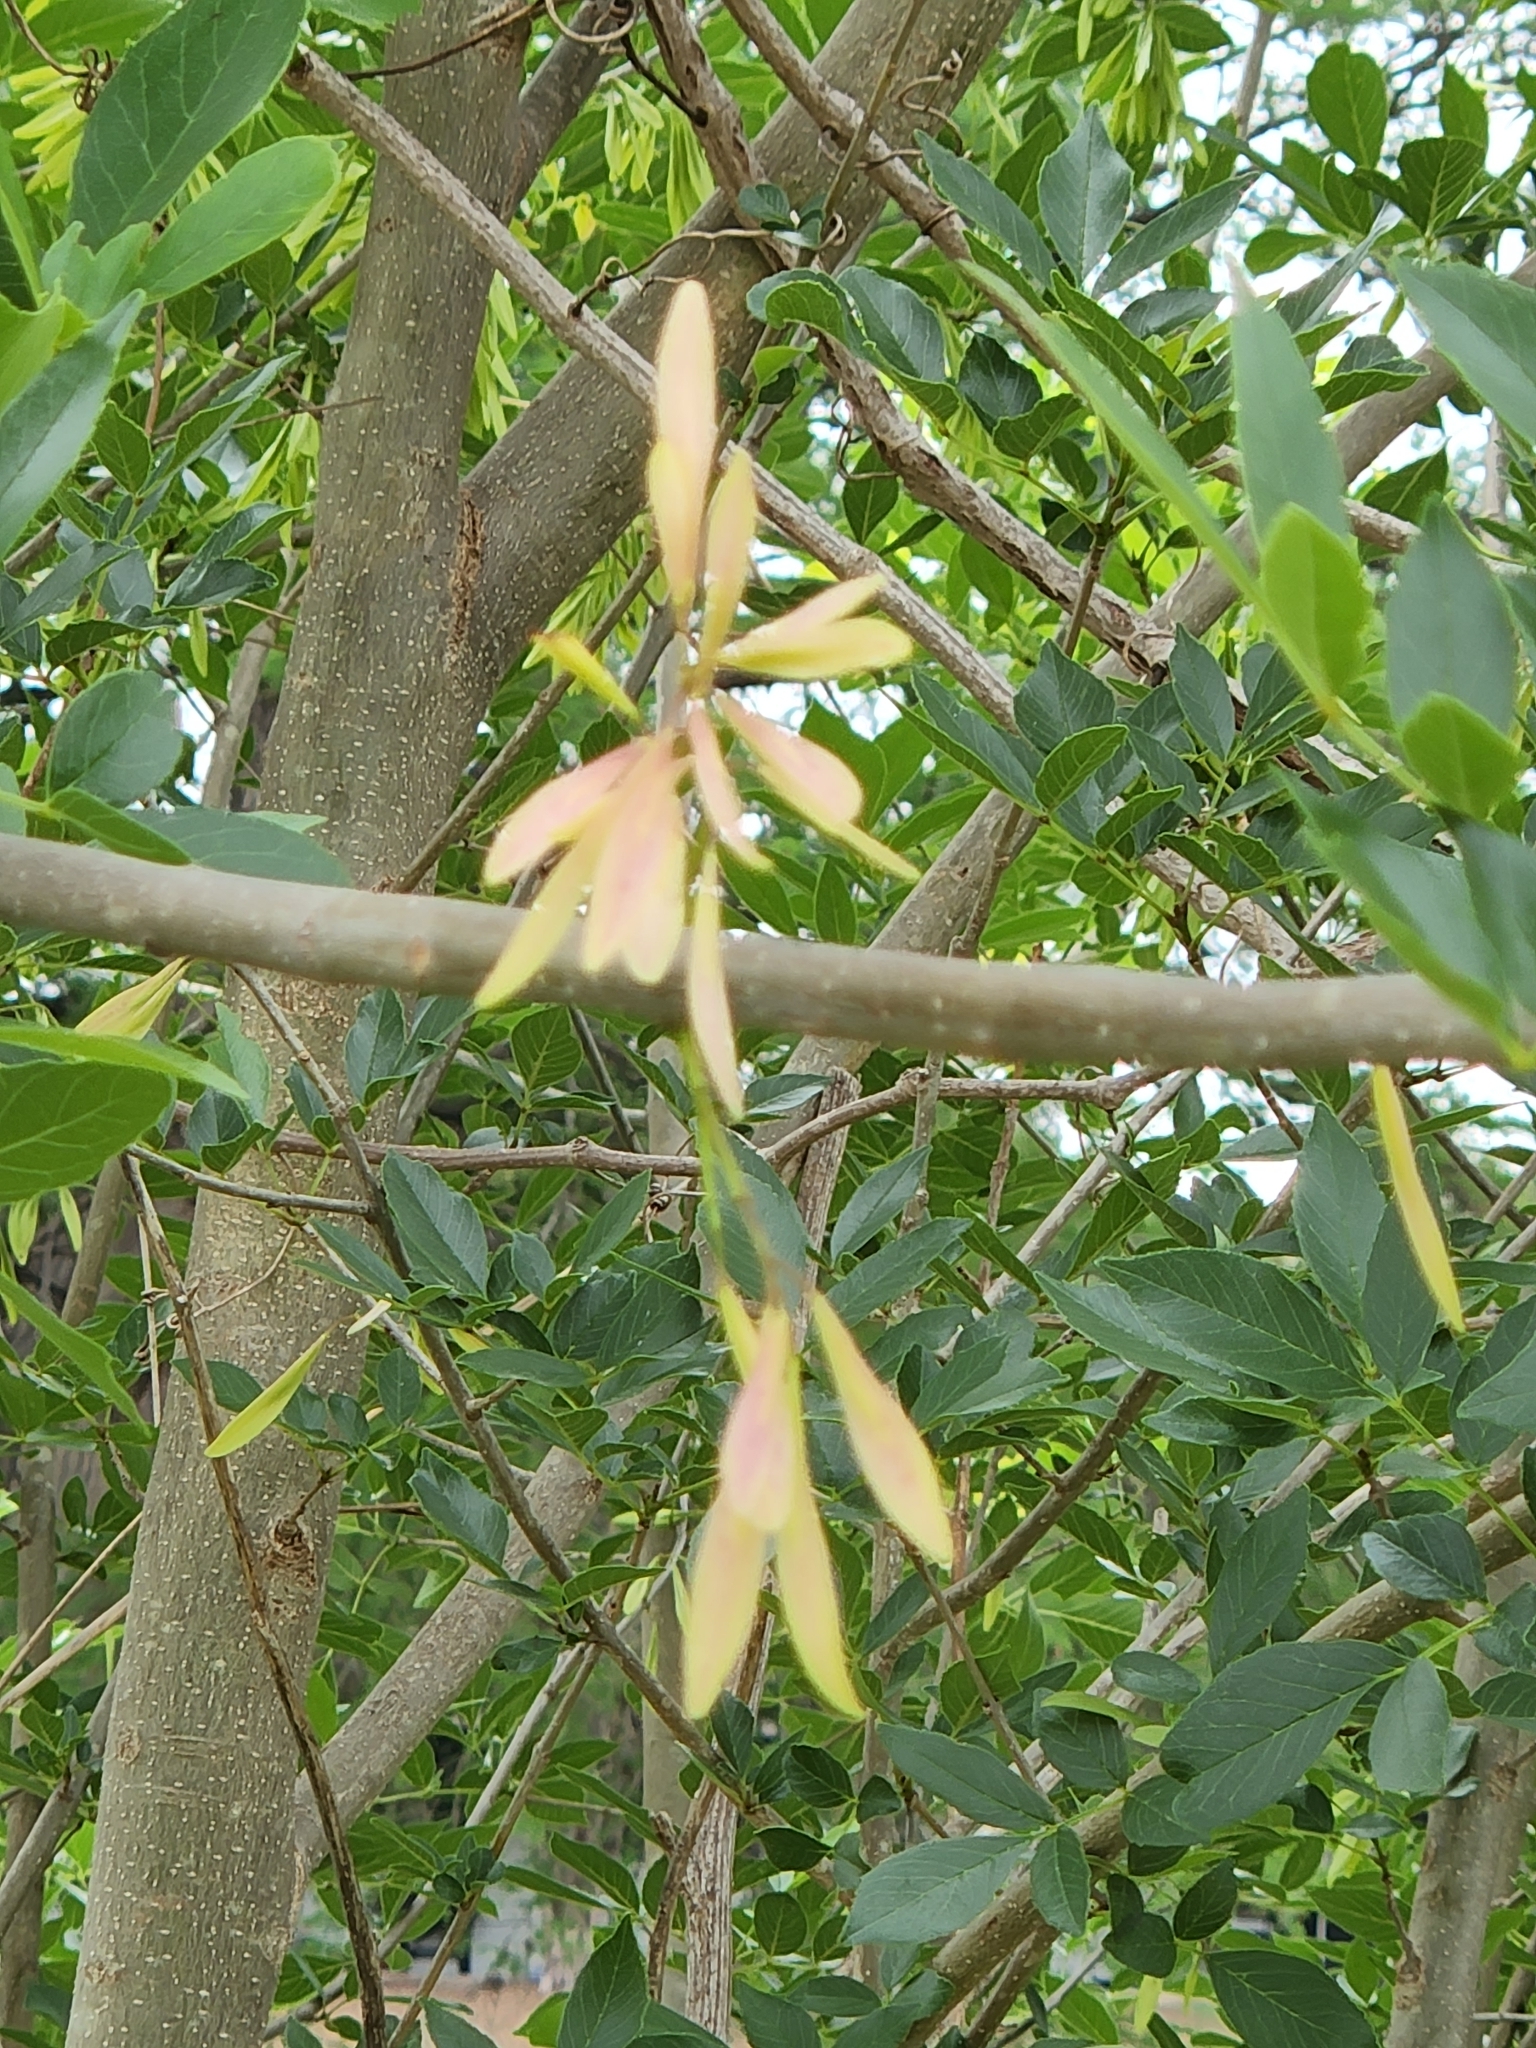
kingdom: Plantae
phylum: Tracheophyta
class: Magnoliopsida
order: Lamiales
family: Oleaceae
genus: Fraxinus
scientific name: Fraxinus berlandieriana
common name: Berlandier ash
